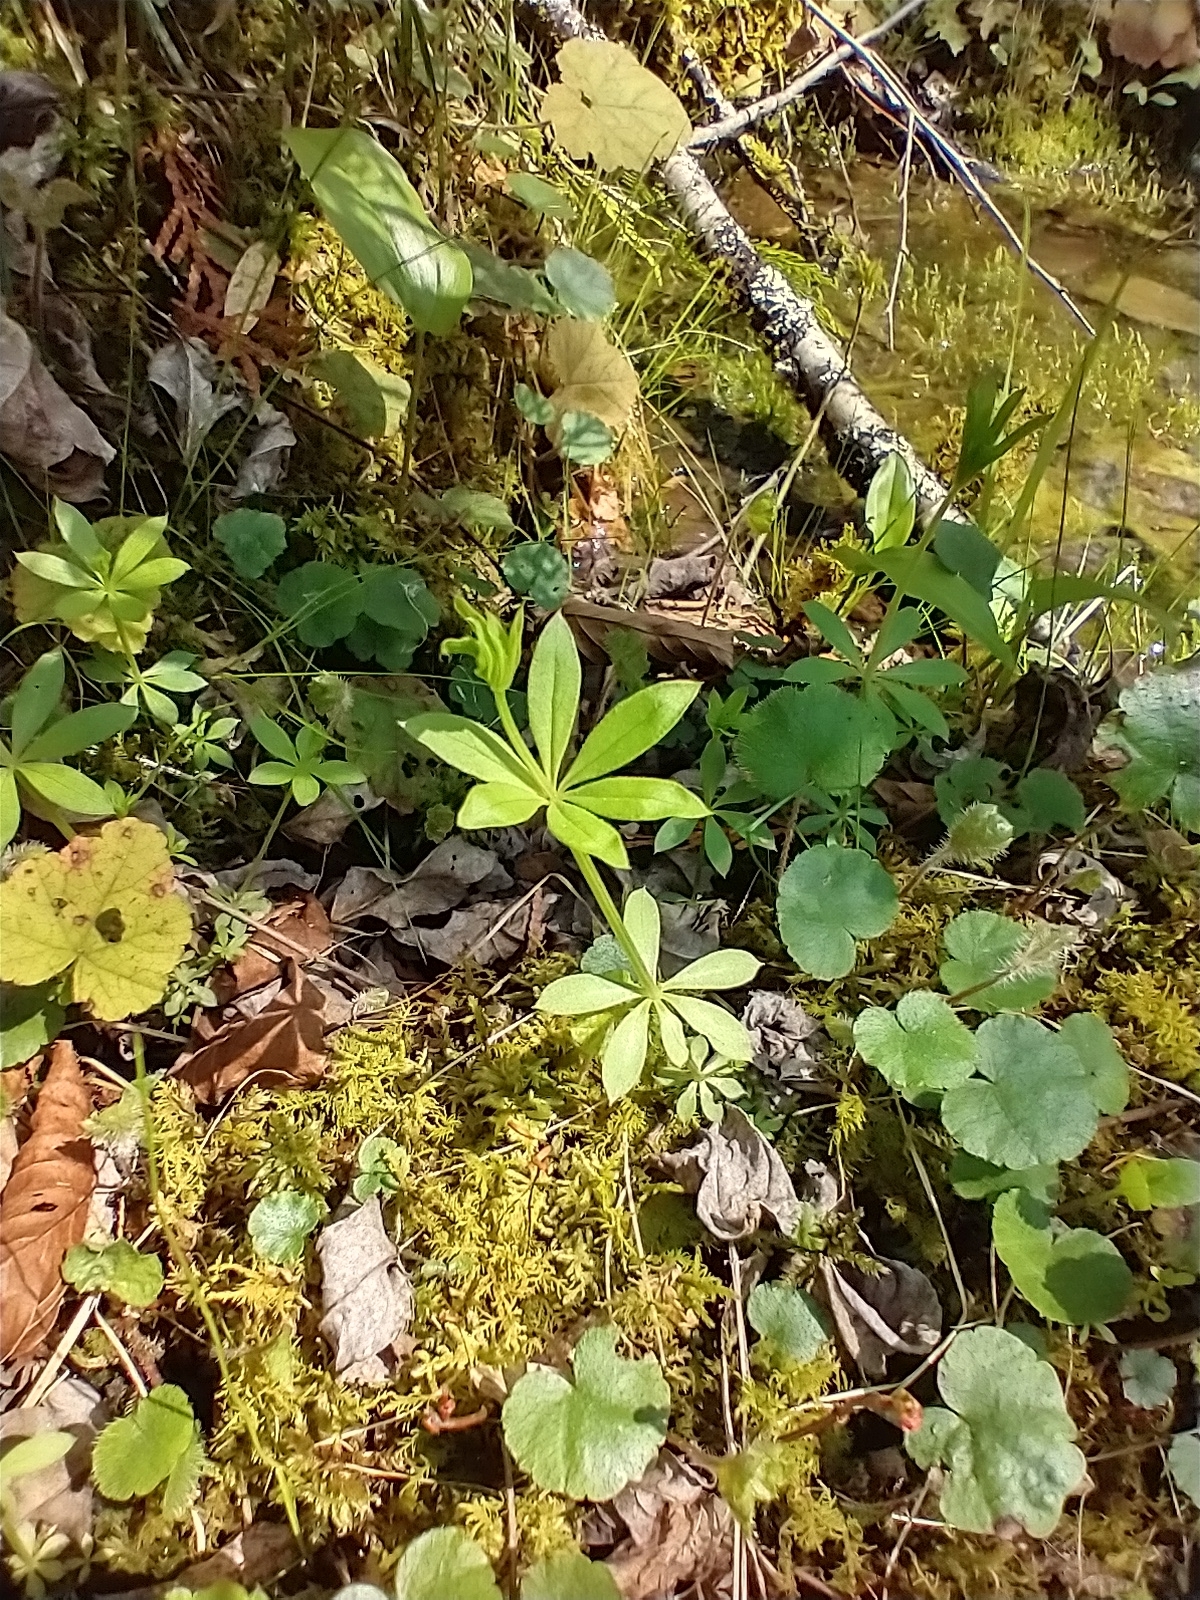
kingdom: Plantae
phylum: Tracheophyta
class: Magnoliopsida
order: Gentianales
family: Rubiaceae
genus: Galium
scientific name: Galium triflorum
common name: Fragrant bedstraw
